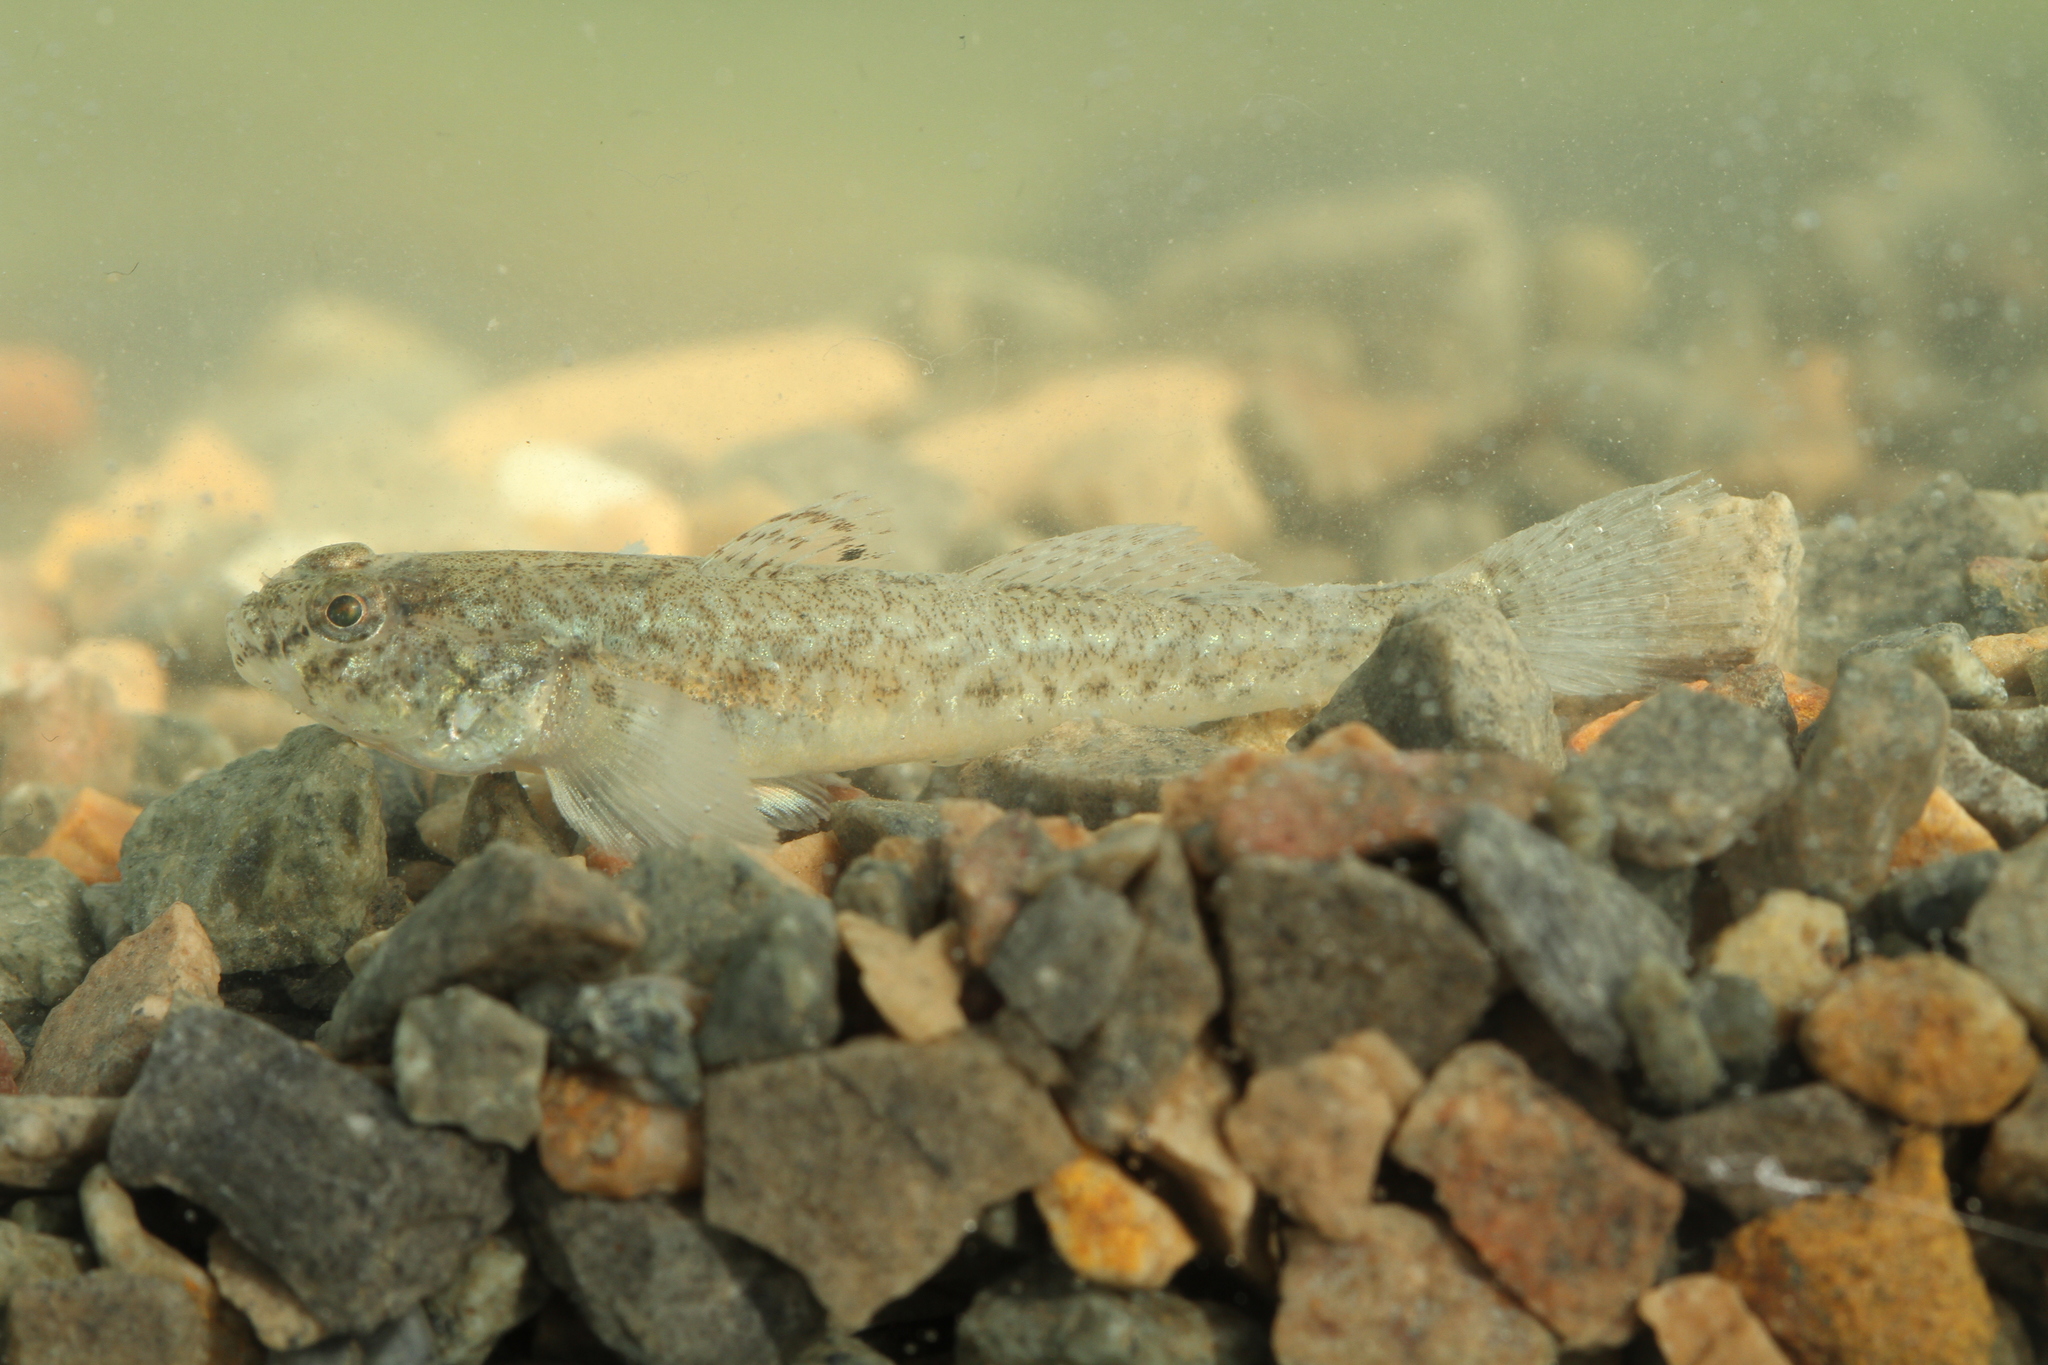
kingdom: Animalia
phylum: Chordata
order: Perciformes
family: Gobiidae
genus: Pomatoschistus
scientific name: Pomatoschistus microps
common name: Common goby
